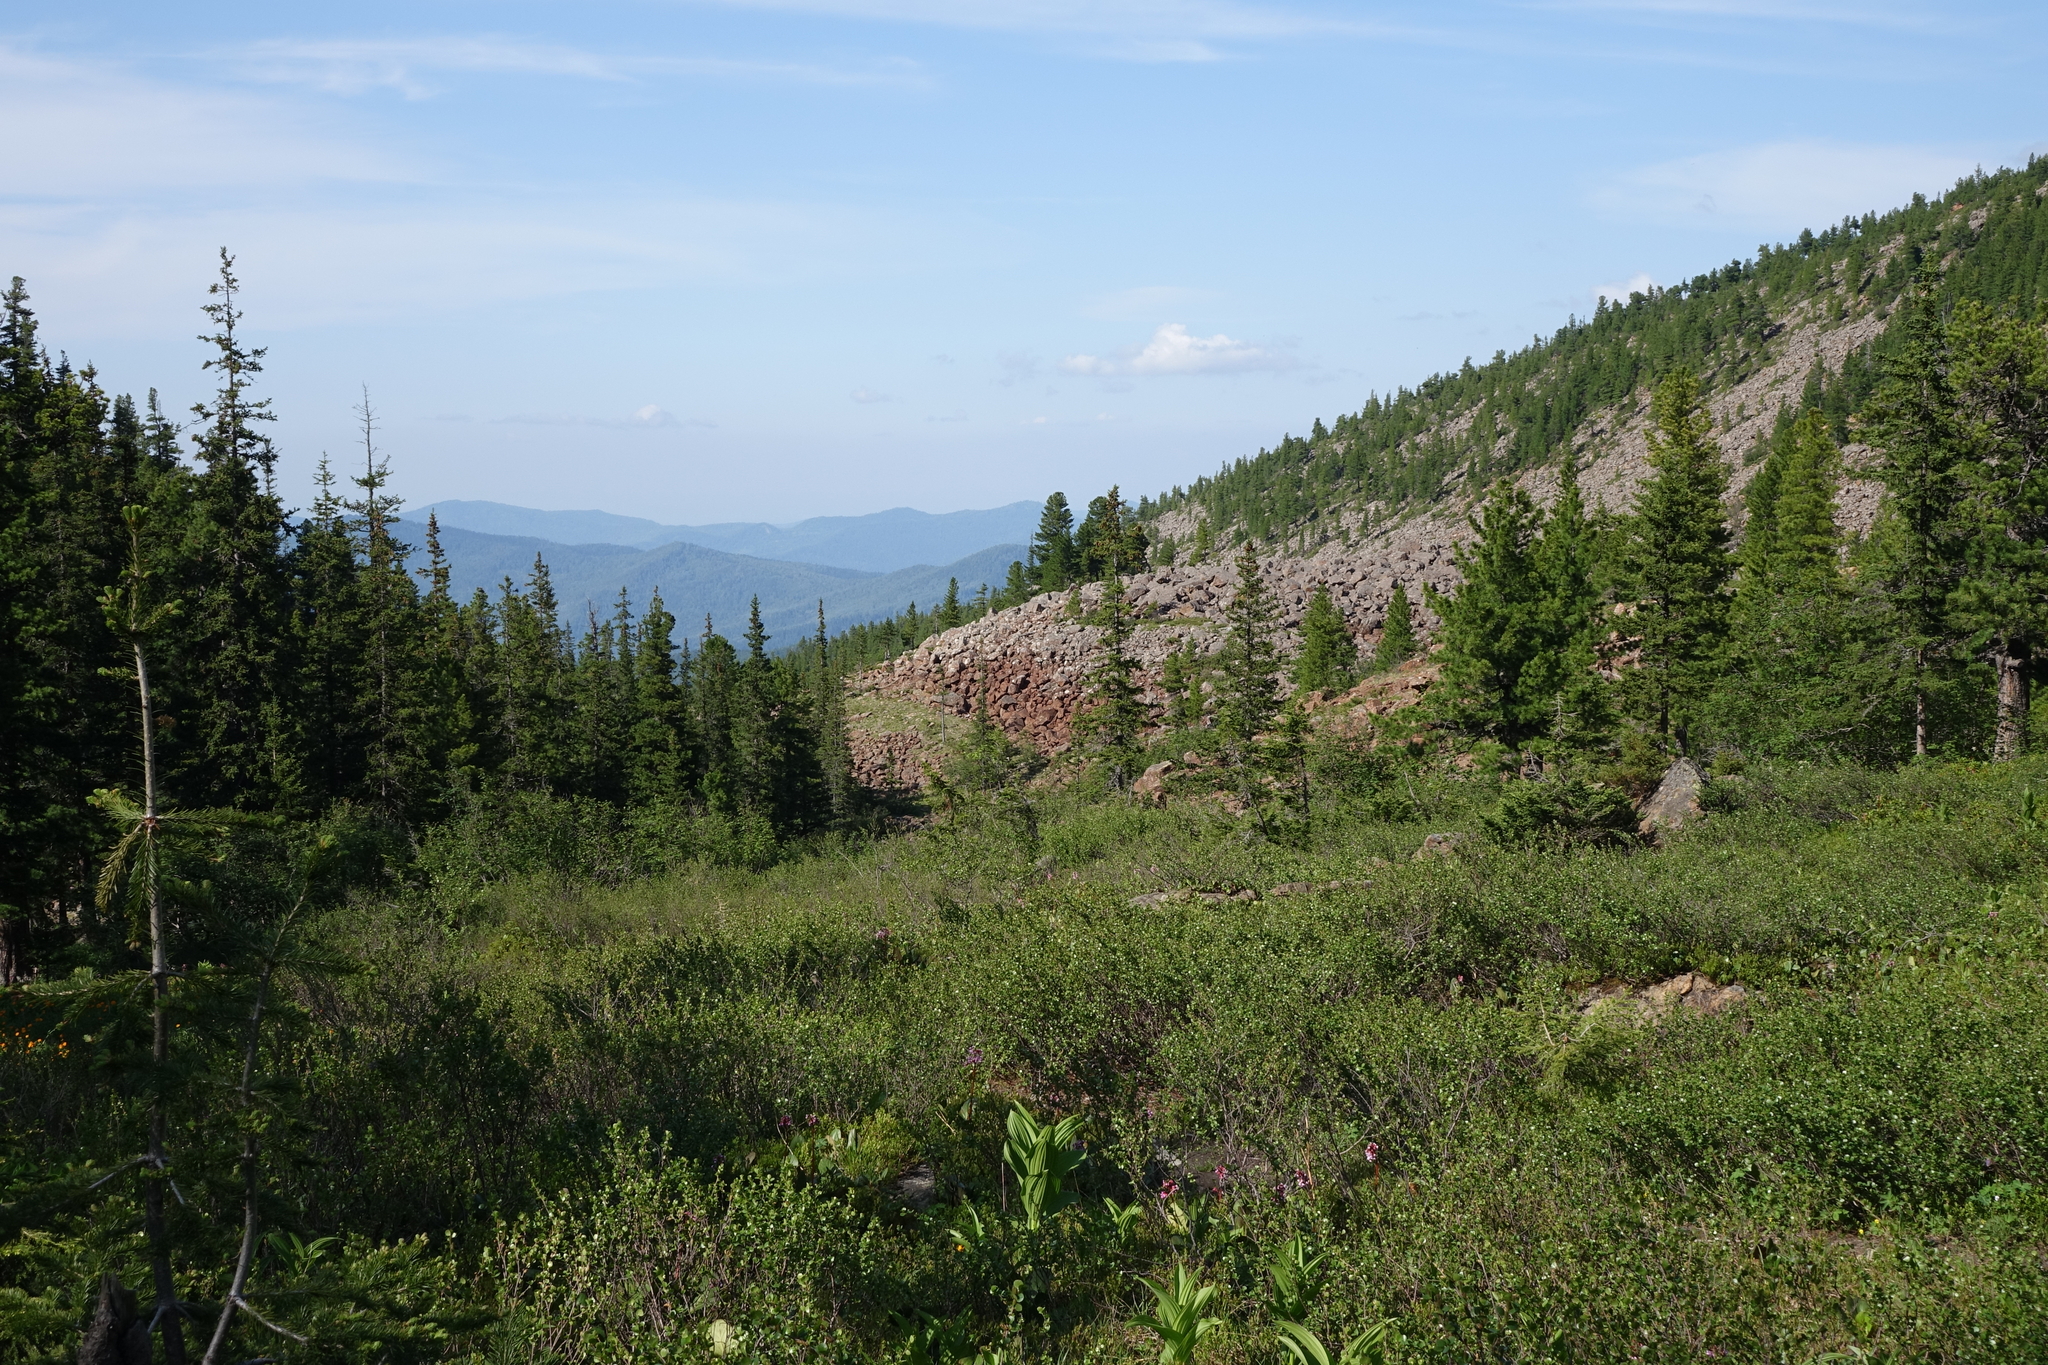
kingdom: Plantae
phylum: Tracheophyta
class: Pinopsida
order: Pinales
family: Pinaceae
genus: Picea
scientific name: Picea obovata
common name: Siberian spruce
